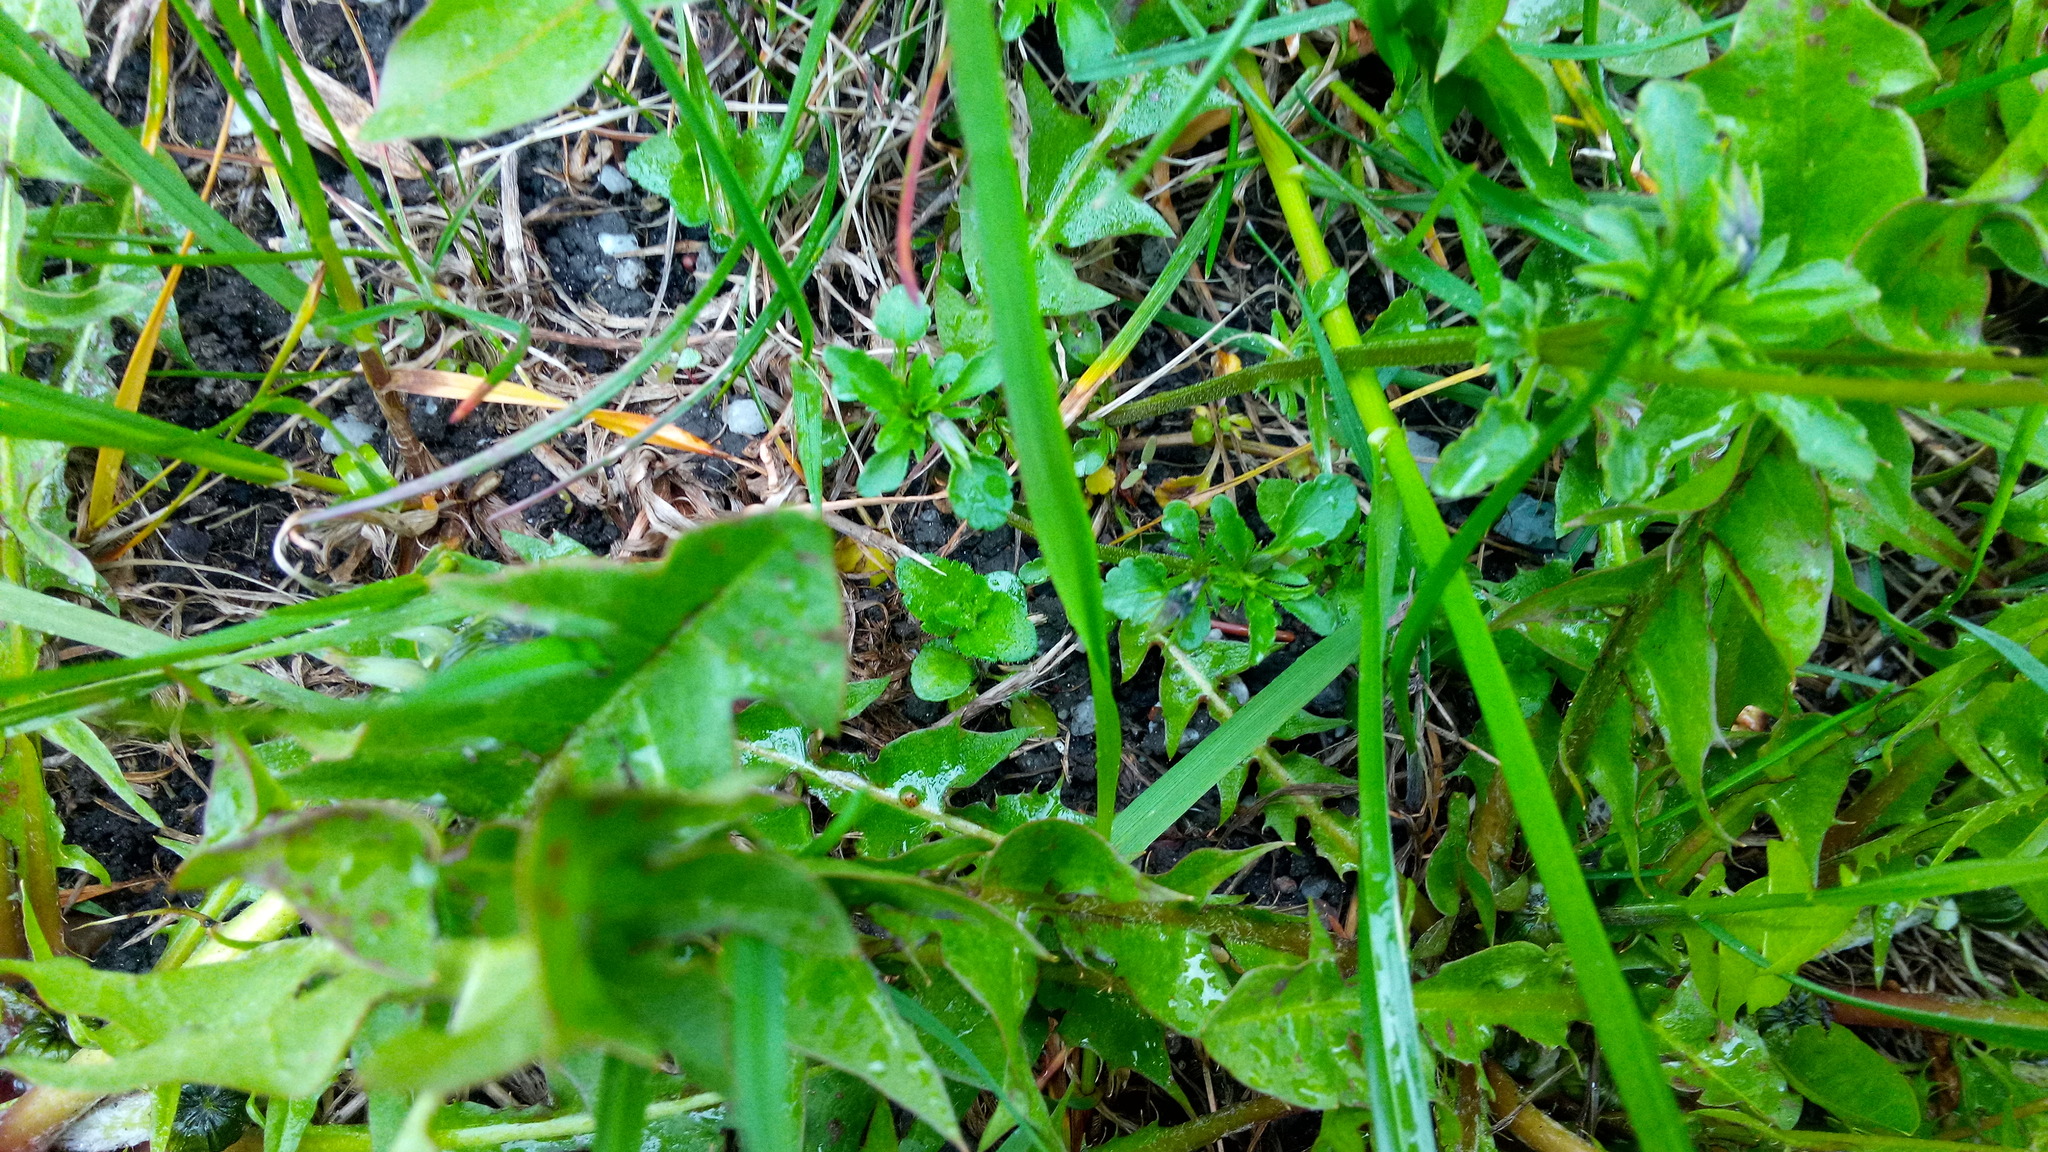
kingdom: Plantae
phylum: Tracheophyta
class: Magnoliopsida
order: Malpighiales
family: Violaceae
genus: Viola
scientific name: Viola arvensis
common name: Field pansy
